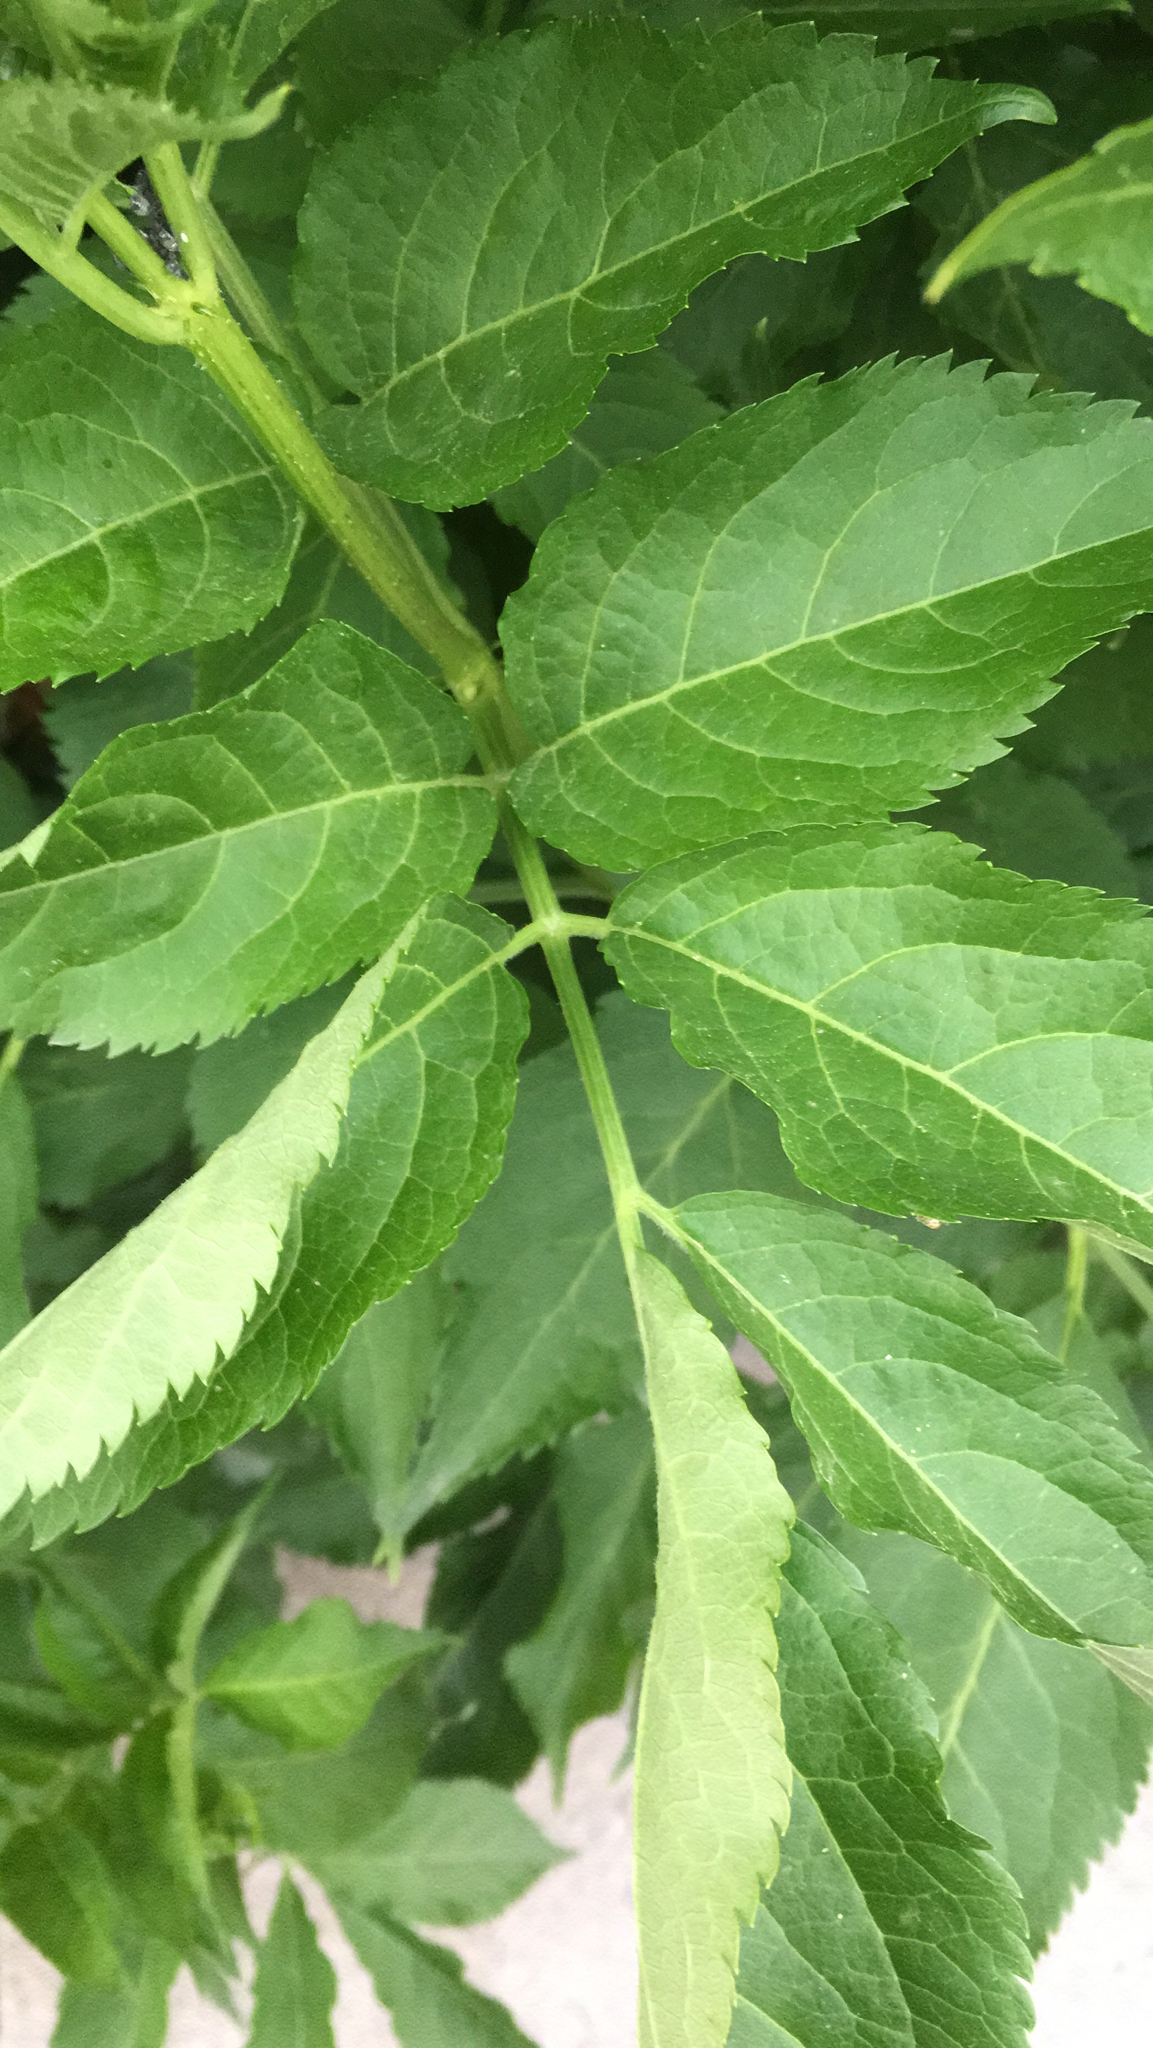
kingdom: Plantae
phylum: Tracheophyta
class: Magnoliopsida
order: Dipsacales
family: Viburnaceae
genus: Sambucus
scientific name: Sambucus nigra
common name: Elder
